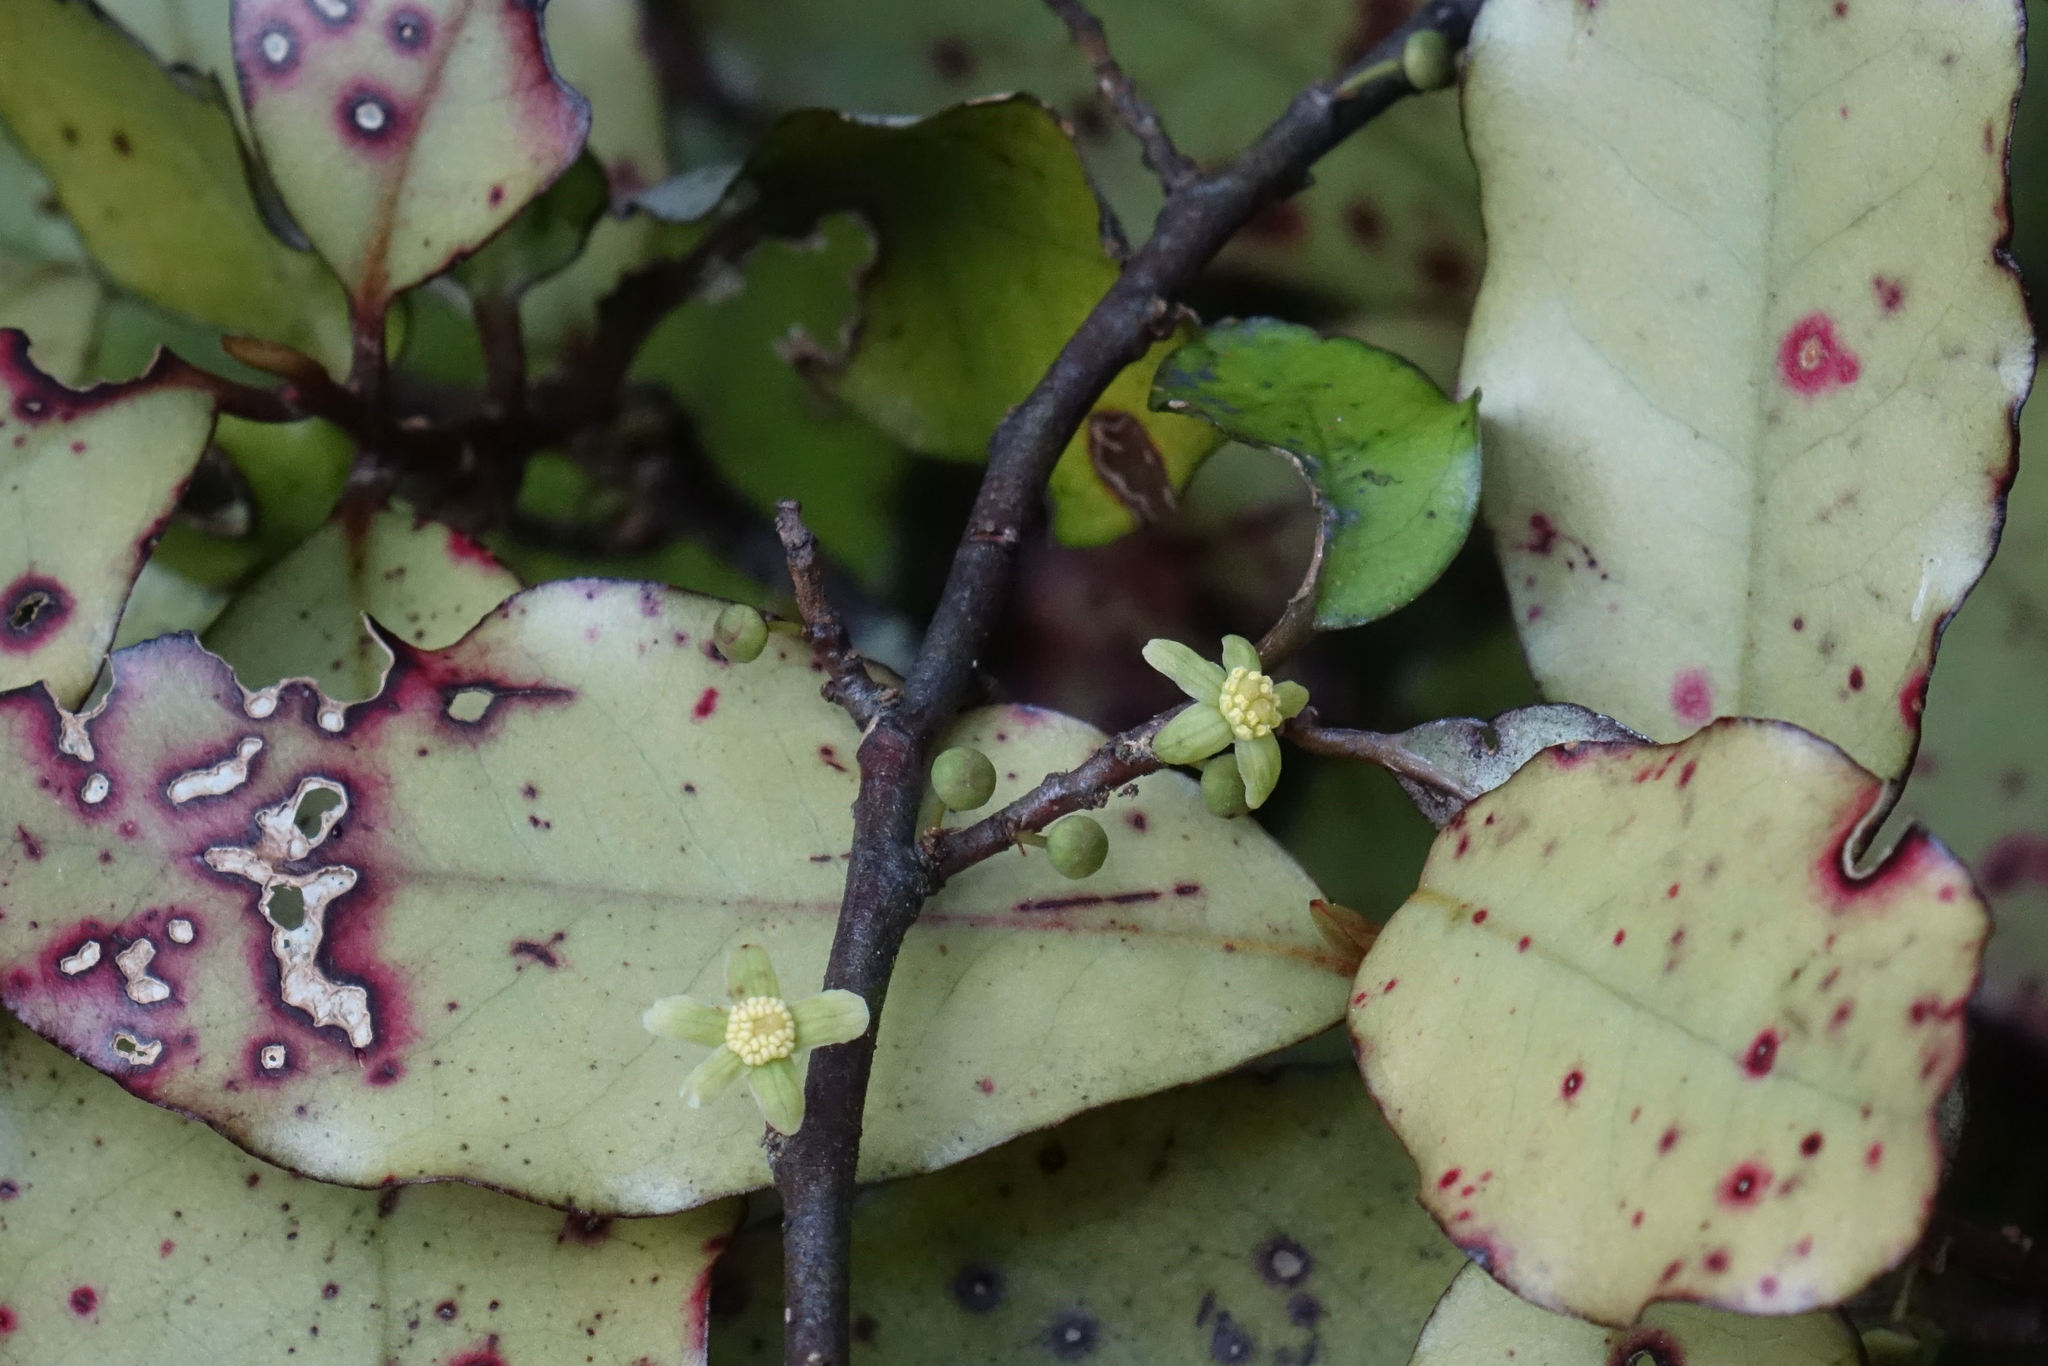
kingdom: Plantae
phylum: Tracheophyta
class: Magnoliopsida
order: Canellales
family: Winteraceae
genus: Pseudowintera
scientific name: Pseudowintera colorata
